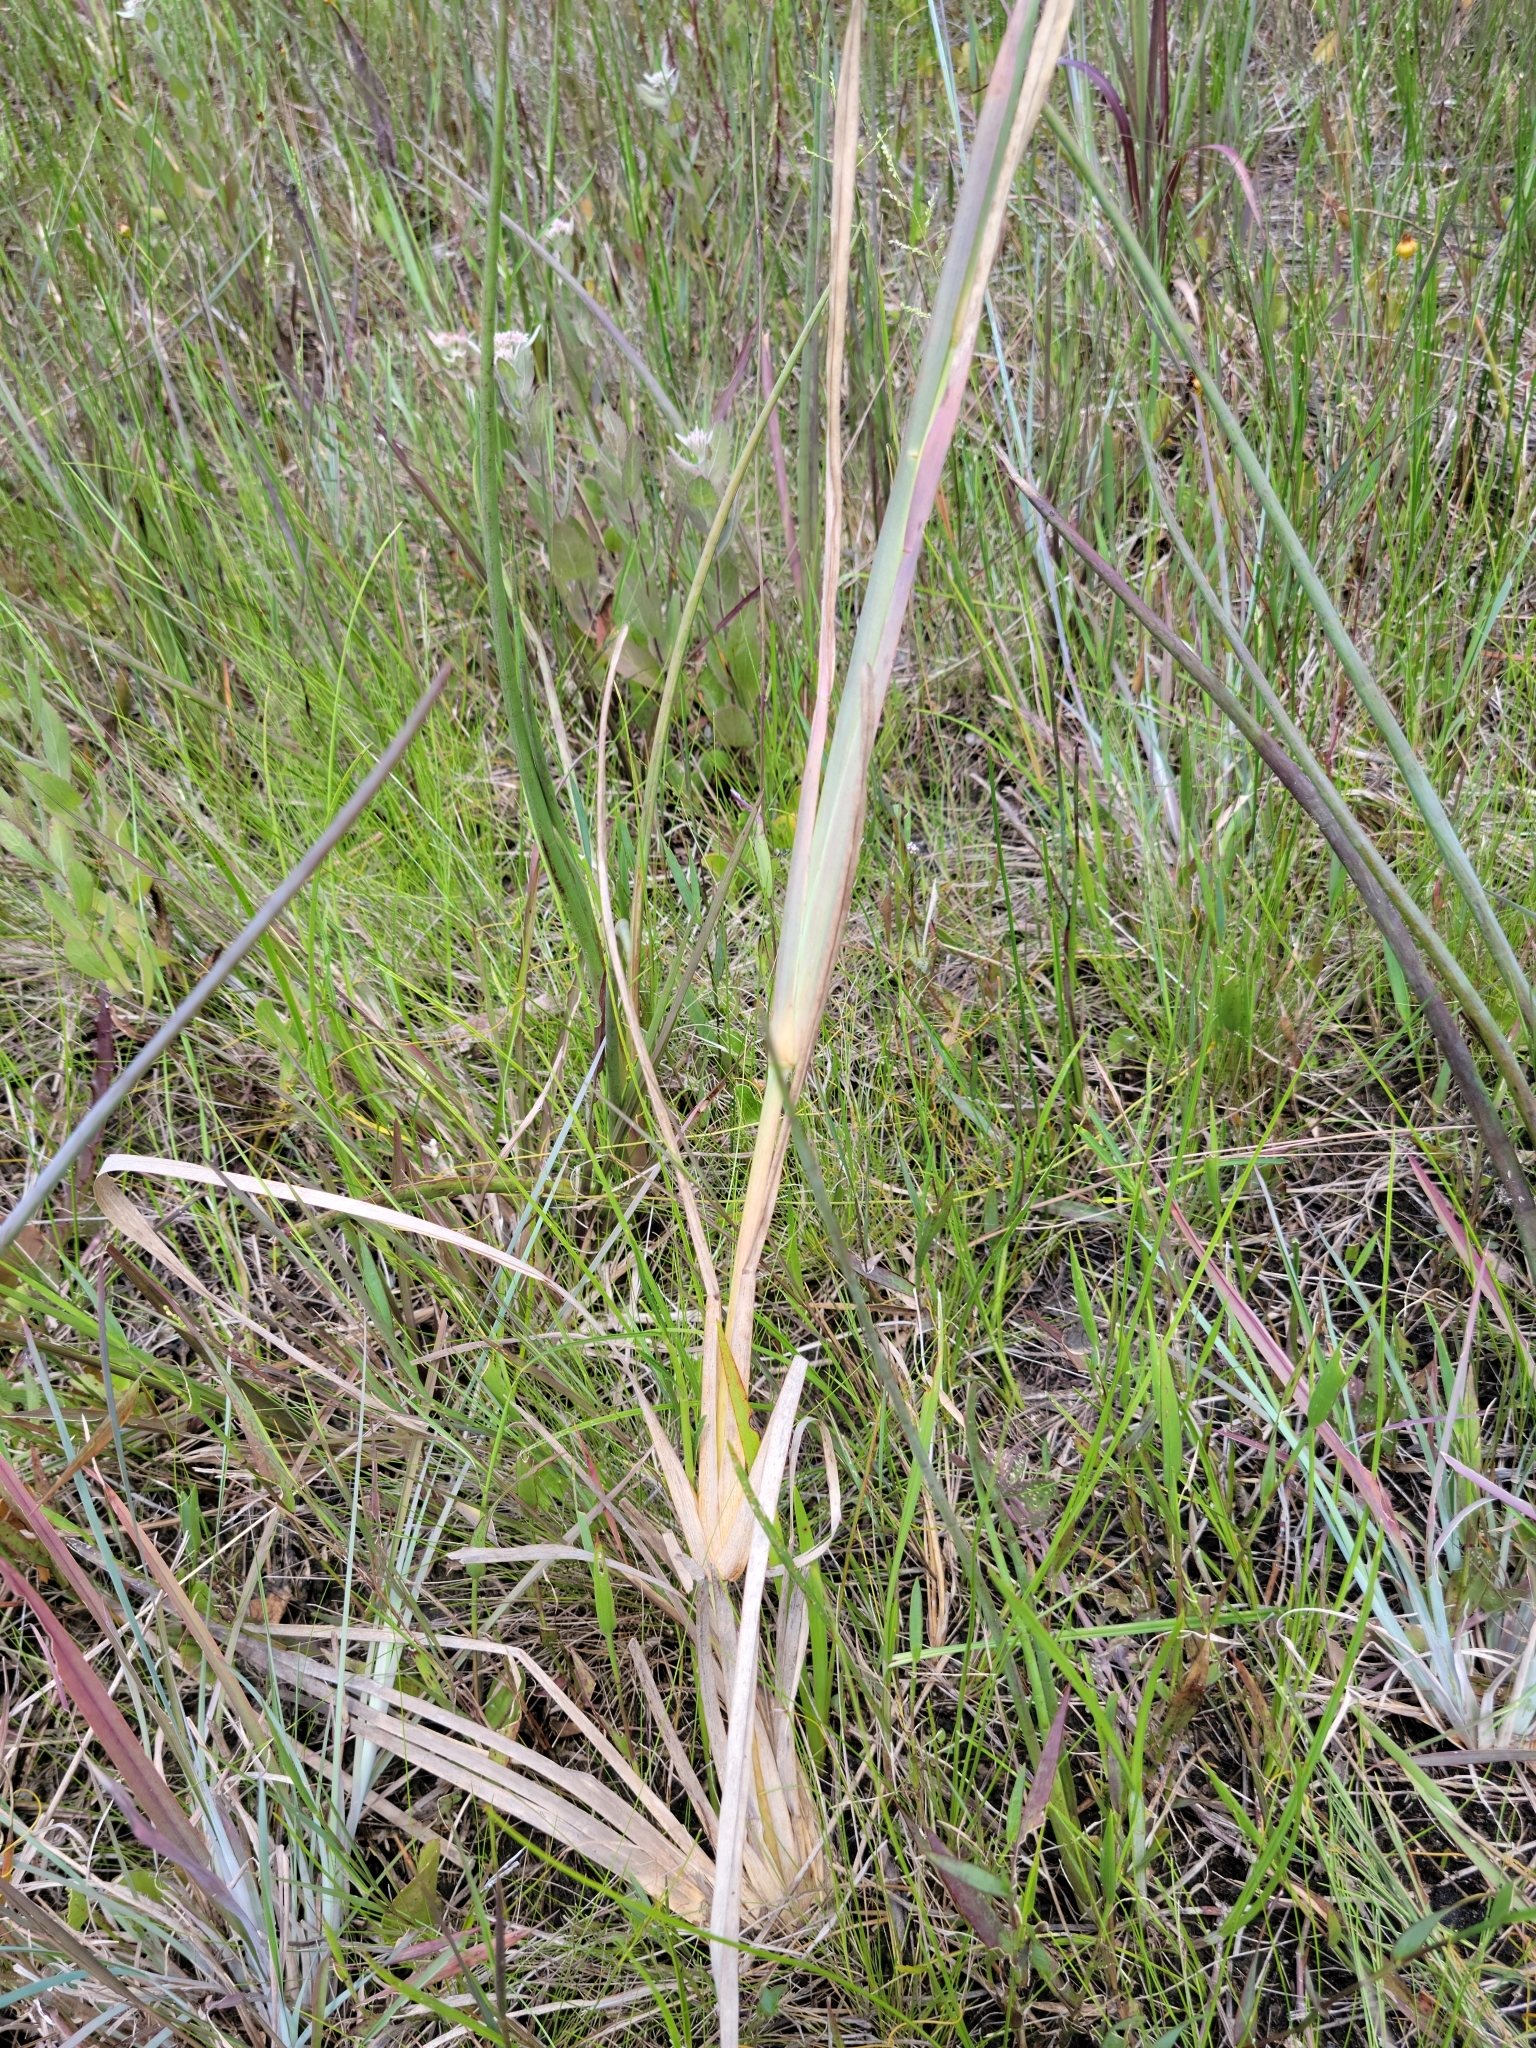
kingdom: Plantae
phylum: Tracheophyta
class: Liliopsida
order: Poales
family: Poaceae
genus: Eustachys
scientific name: Eustachys glauca
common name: Saltmarsh finger grass
